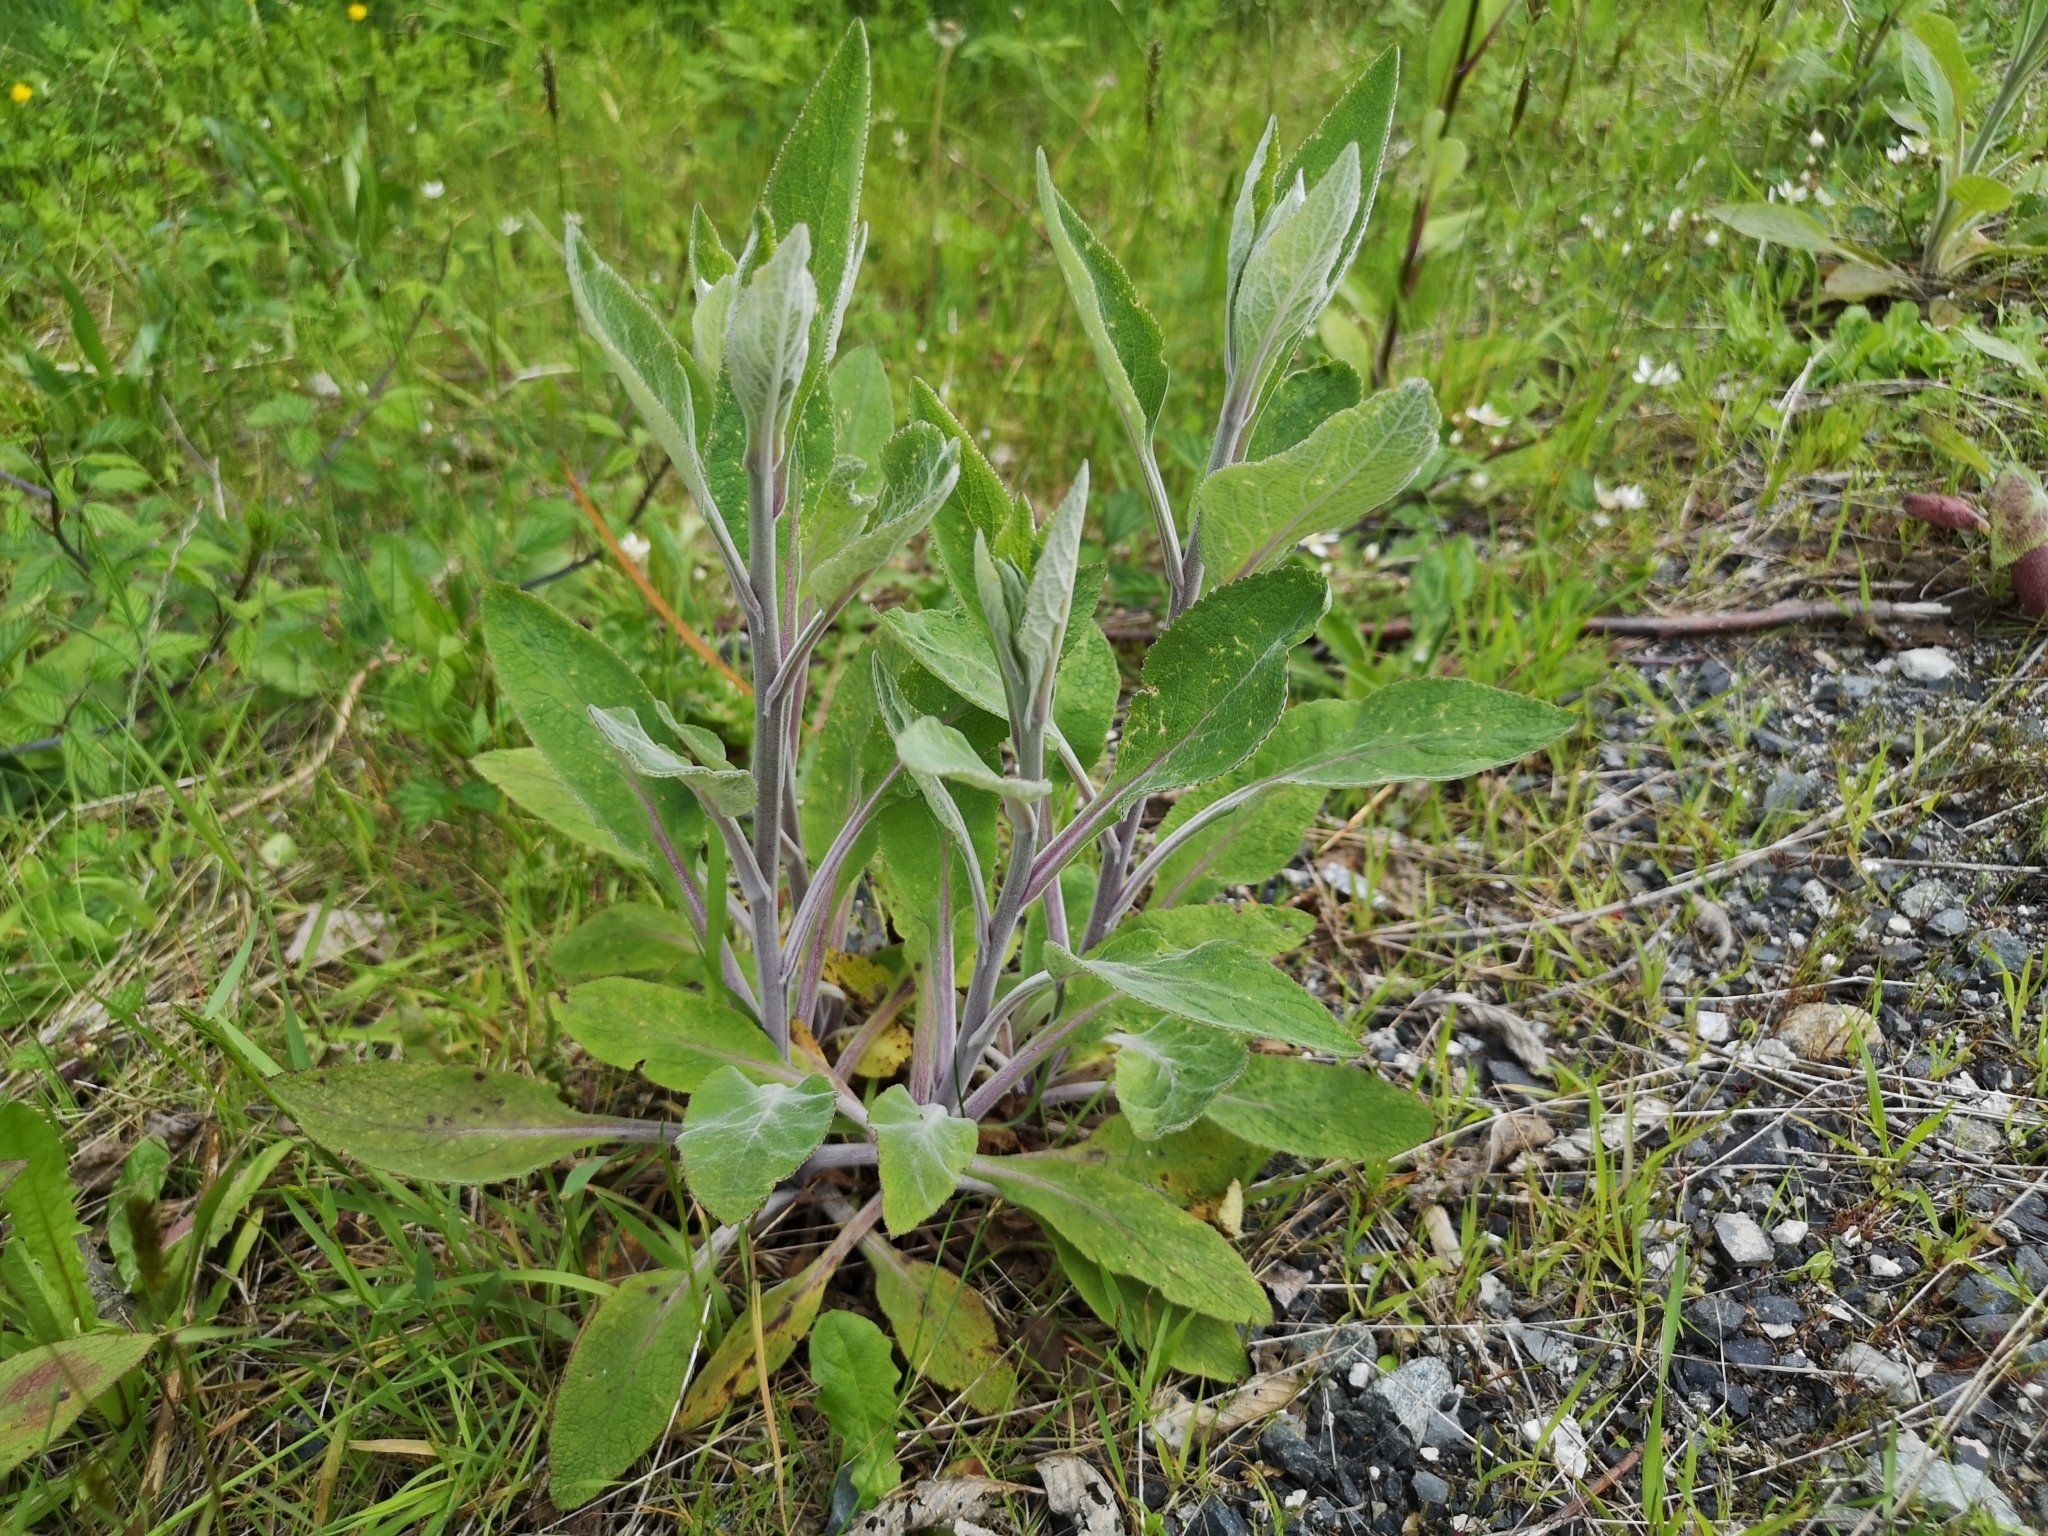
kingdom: Plantae
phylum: Tracheophyta
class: Magnoliopsida
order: Lamiales
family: Plantaginaceae
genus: Digitalis
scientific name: Digitalis purpurea
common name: Foxglove
